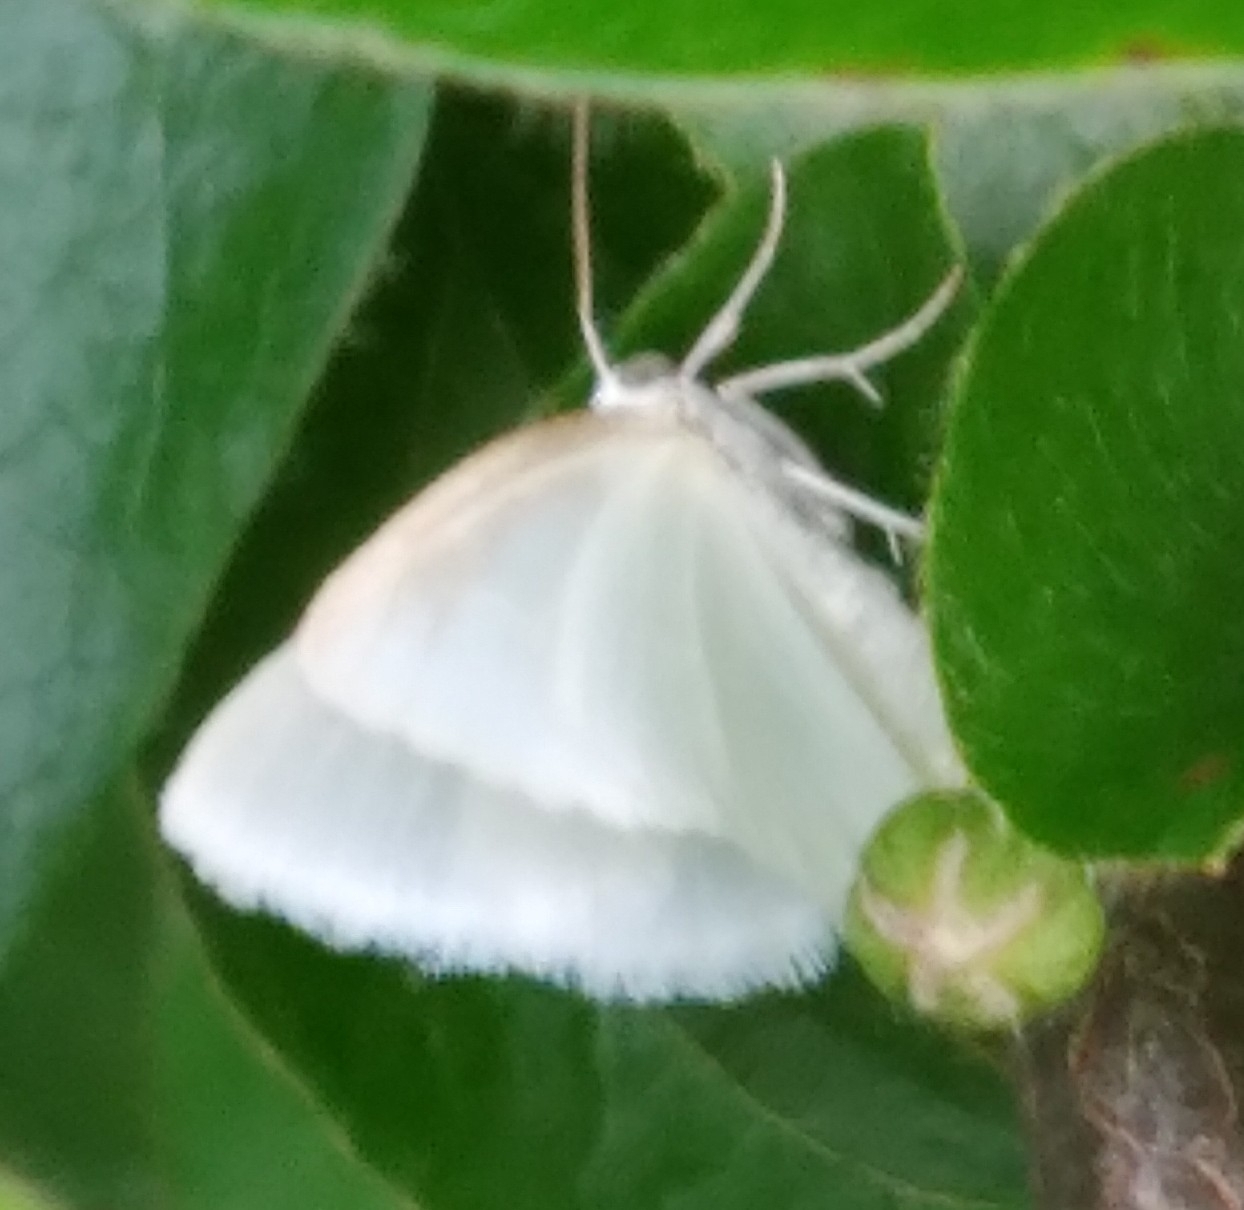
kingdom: Animalia
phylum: Arthropoda
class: Insecta
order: Lepidoptera
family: Geometridae
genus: Lomographa
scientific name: Lomographa vestaliata
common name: White spring moth
